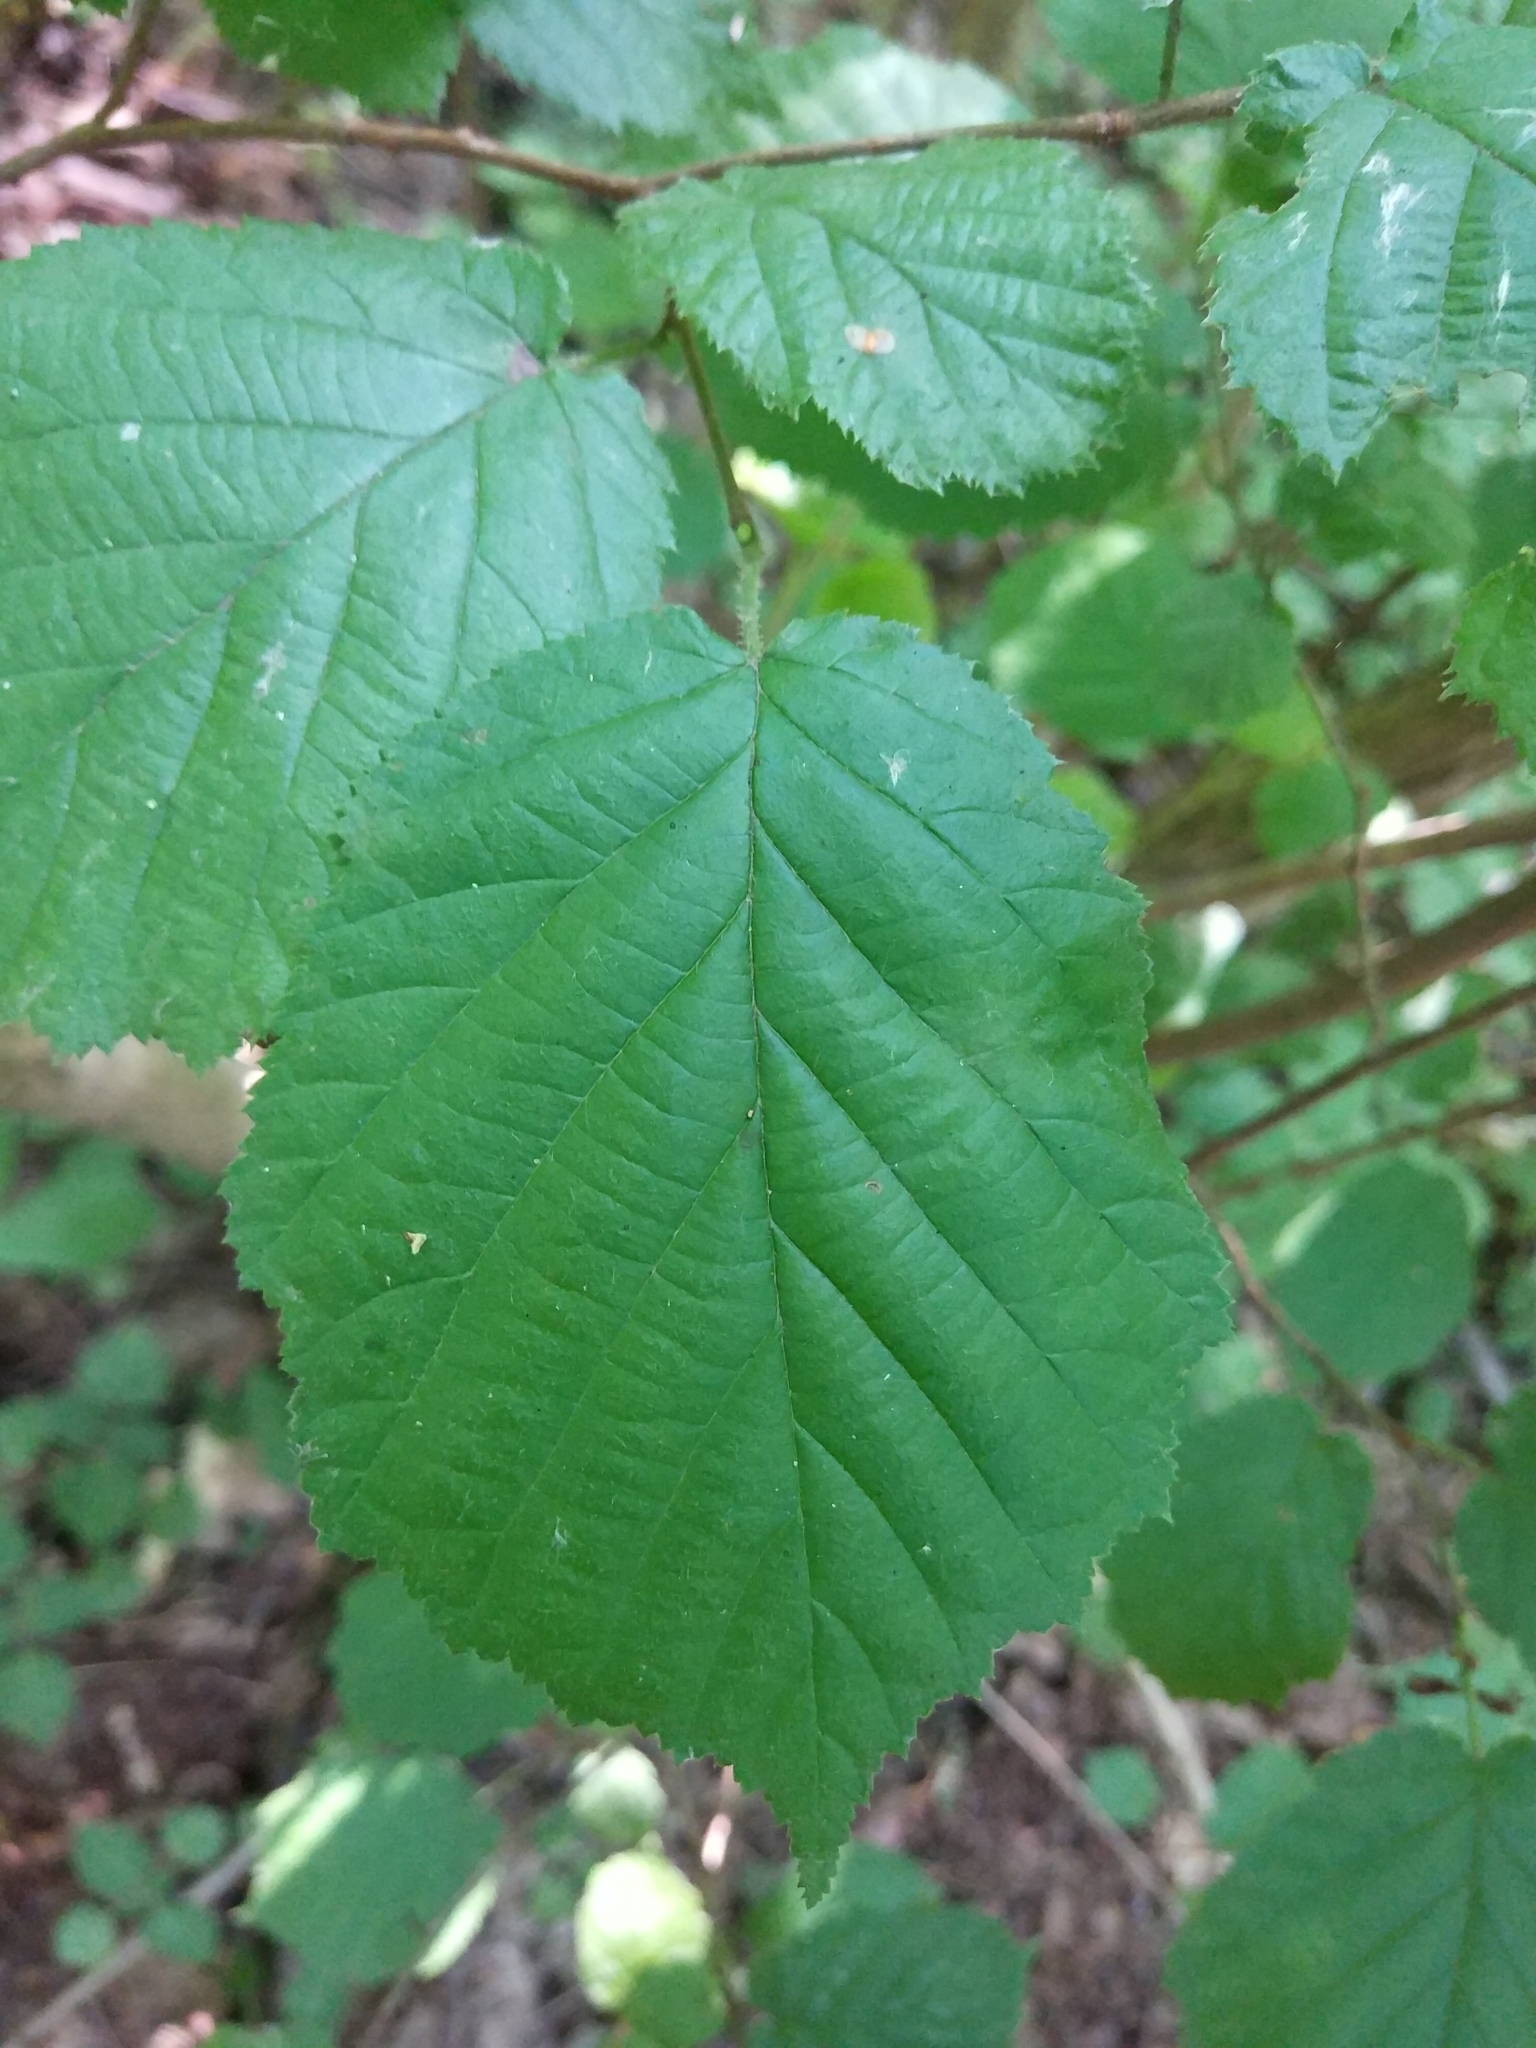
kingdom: Plantae
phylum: Tracheophyta
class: Magnoliopsida
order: Fagales
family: Betulaceae
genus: Corylus
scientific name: Corylus avellana
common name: European hazel
